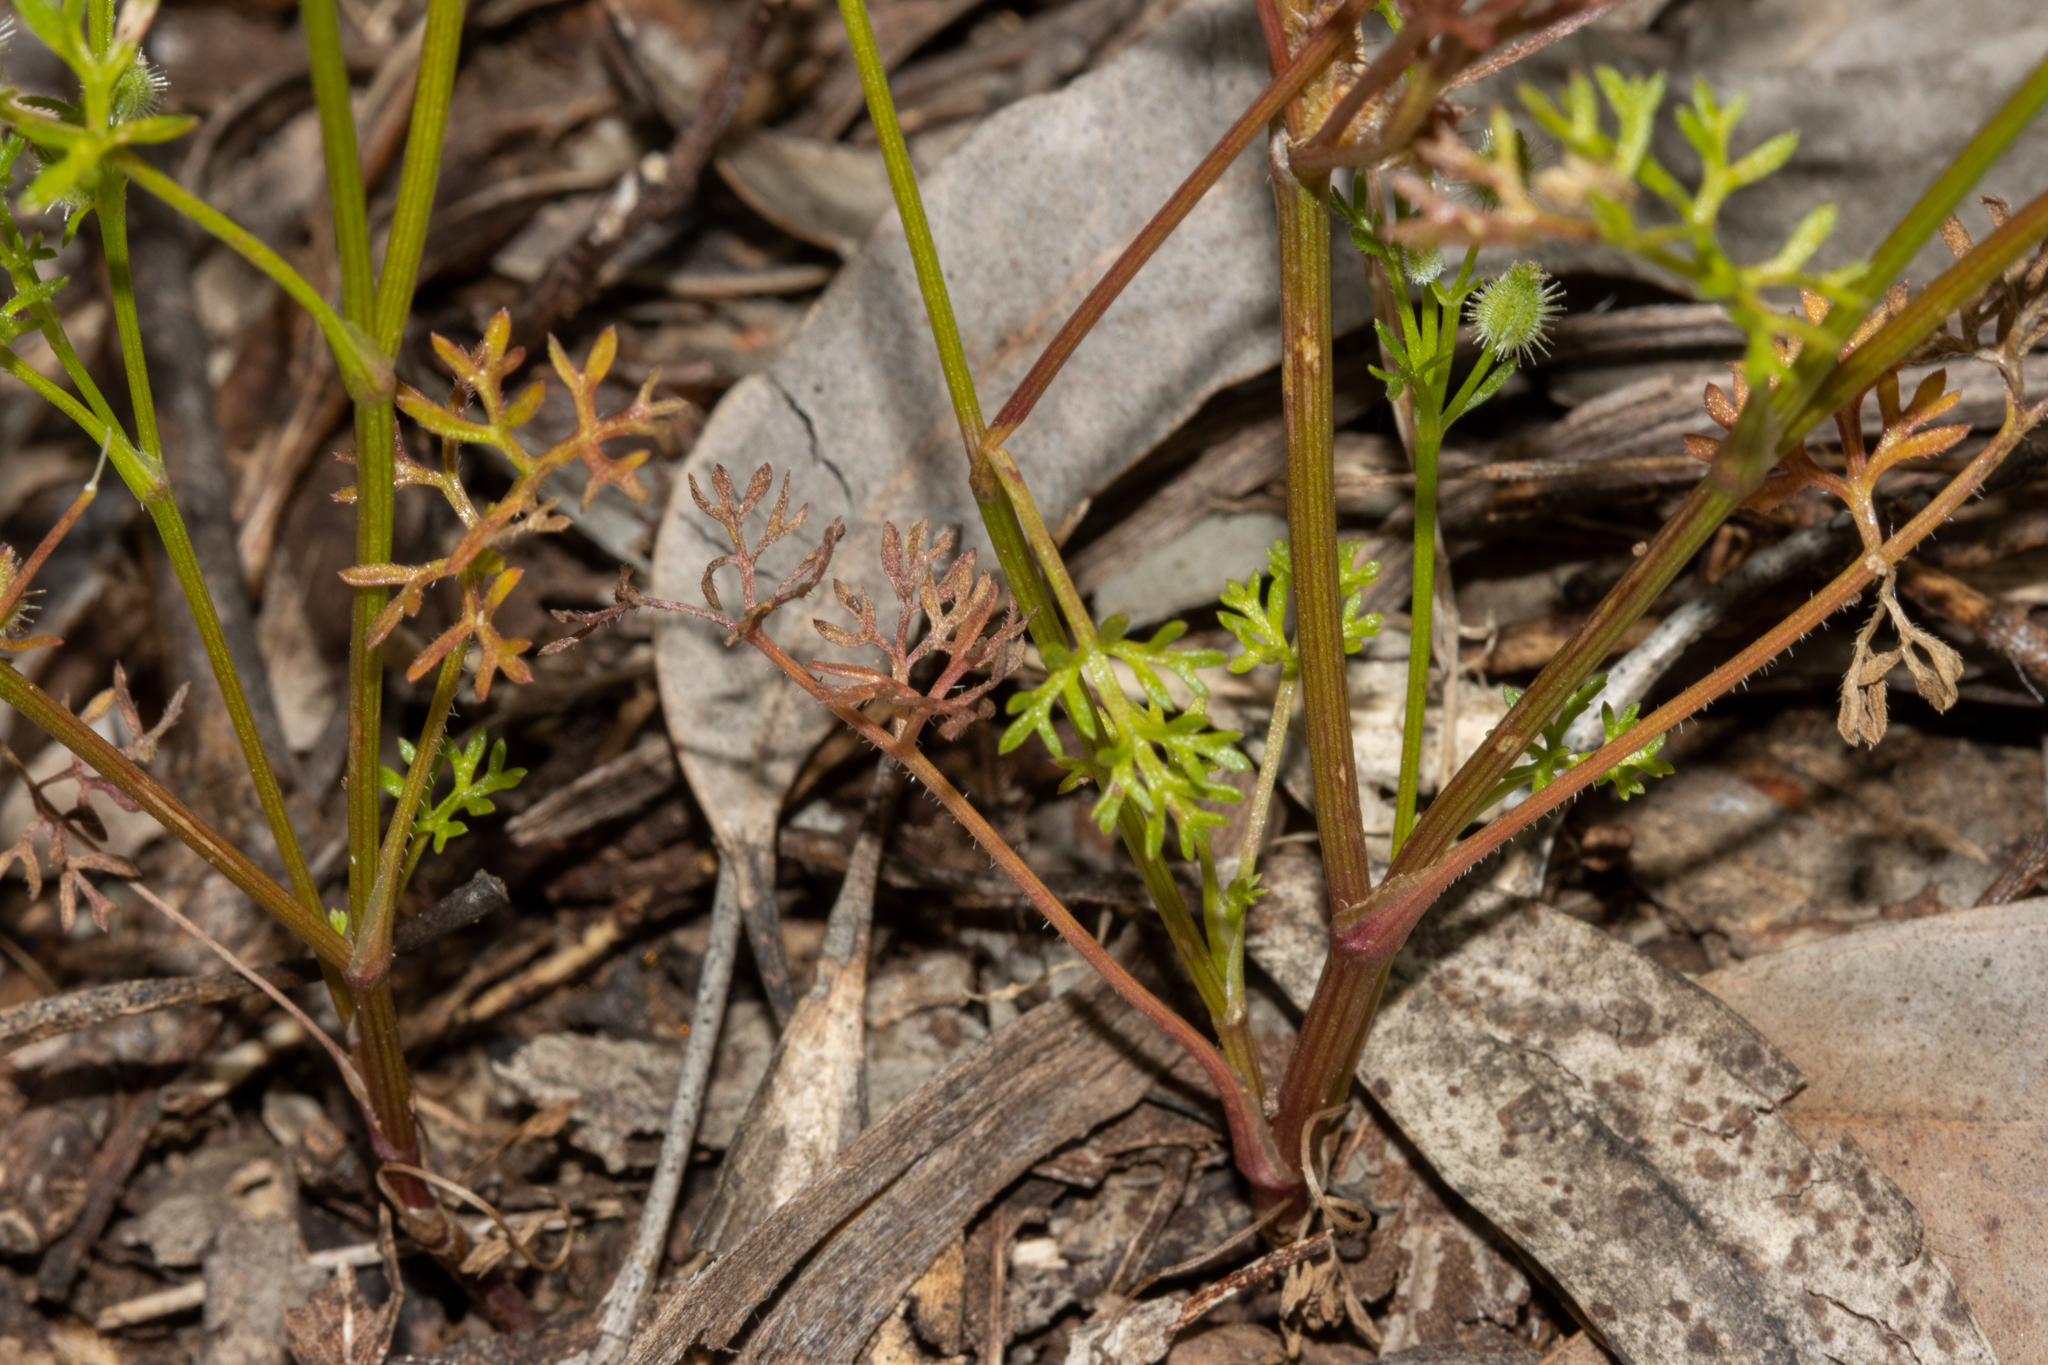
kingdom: Plantae
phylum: Tracheophyta
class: Magnoliopsida
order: Apiales
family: Apiaceae
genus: Daucus
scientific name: Daucus glochidiatus
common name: Australian carrot
